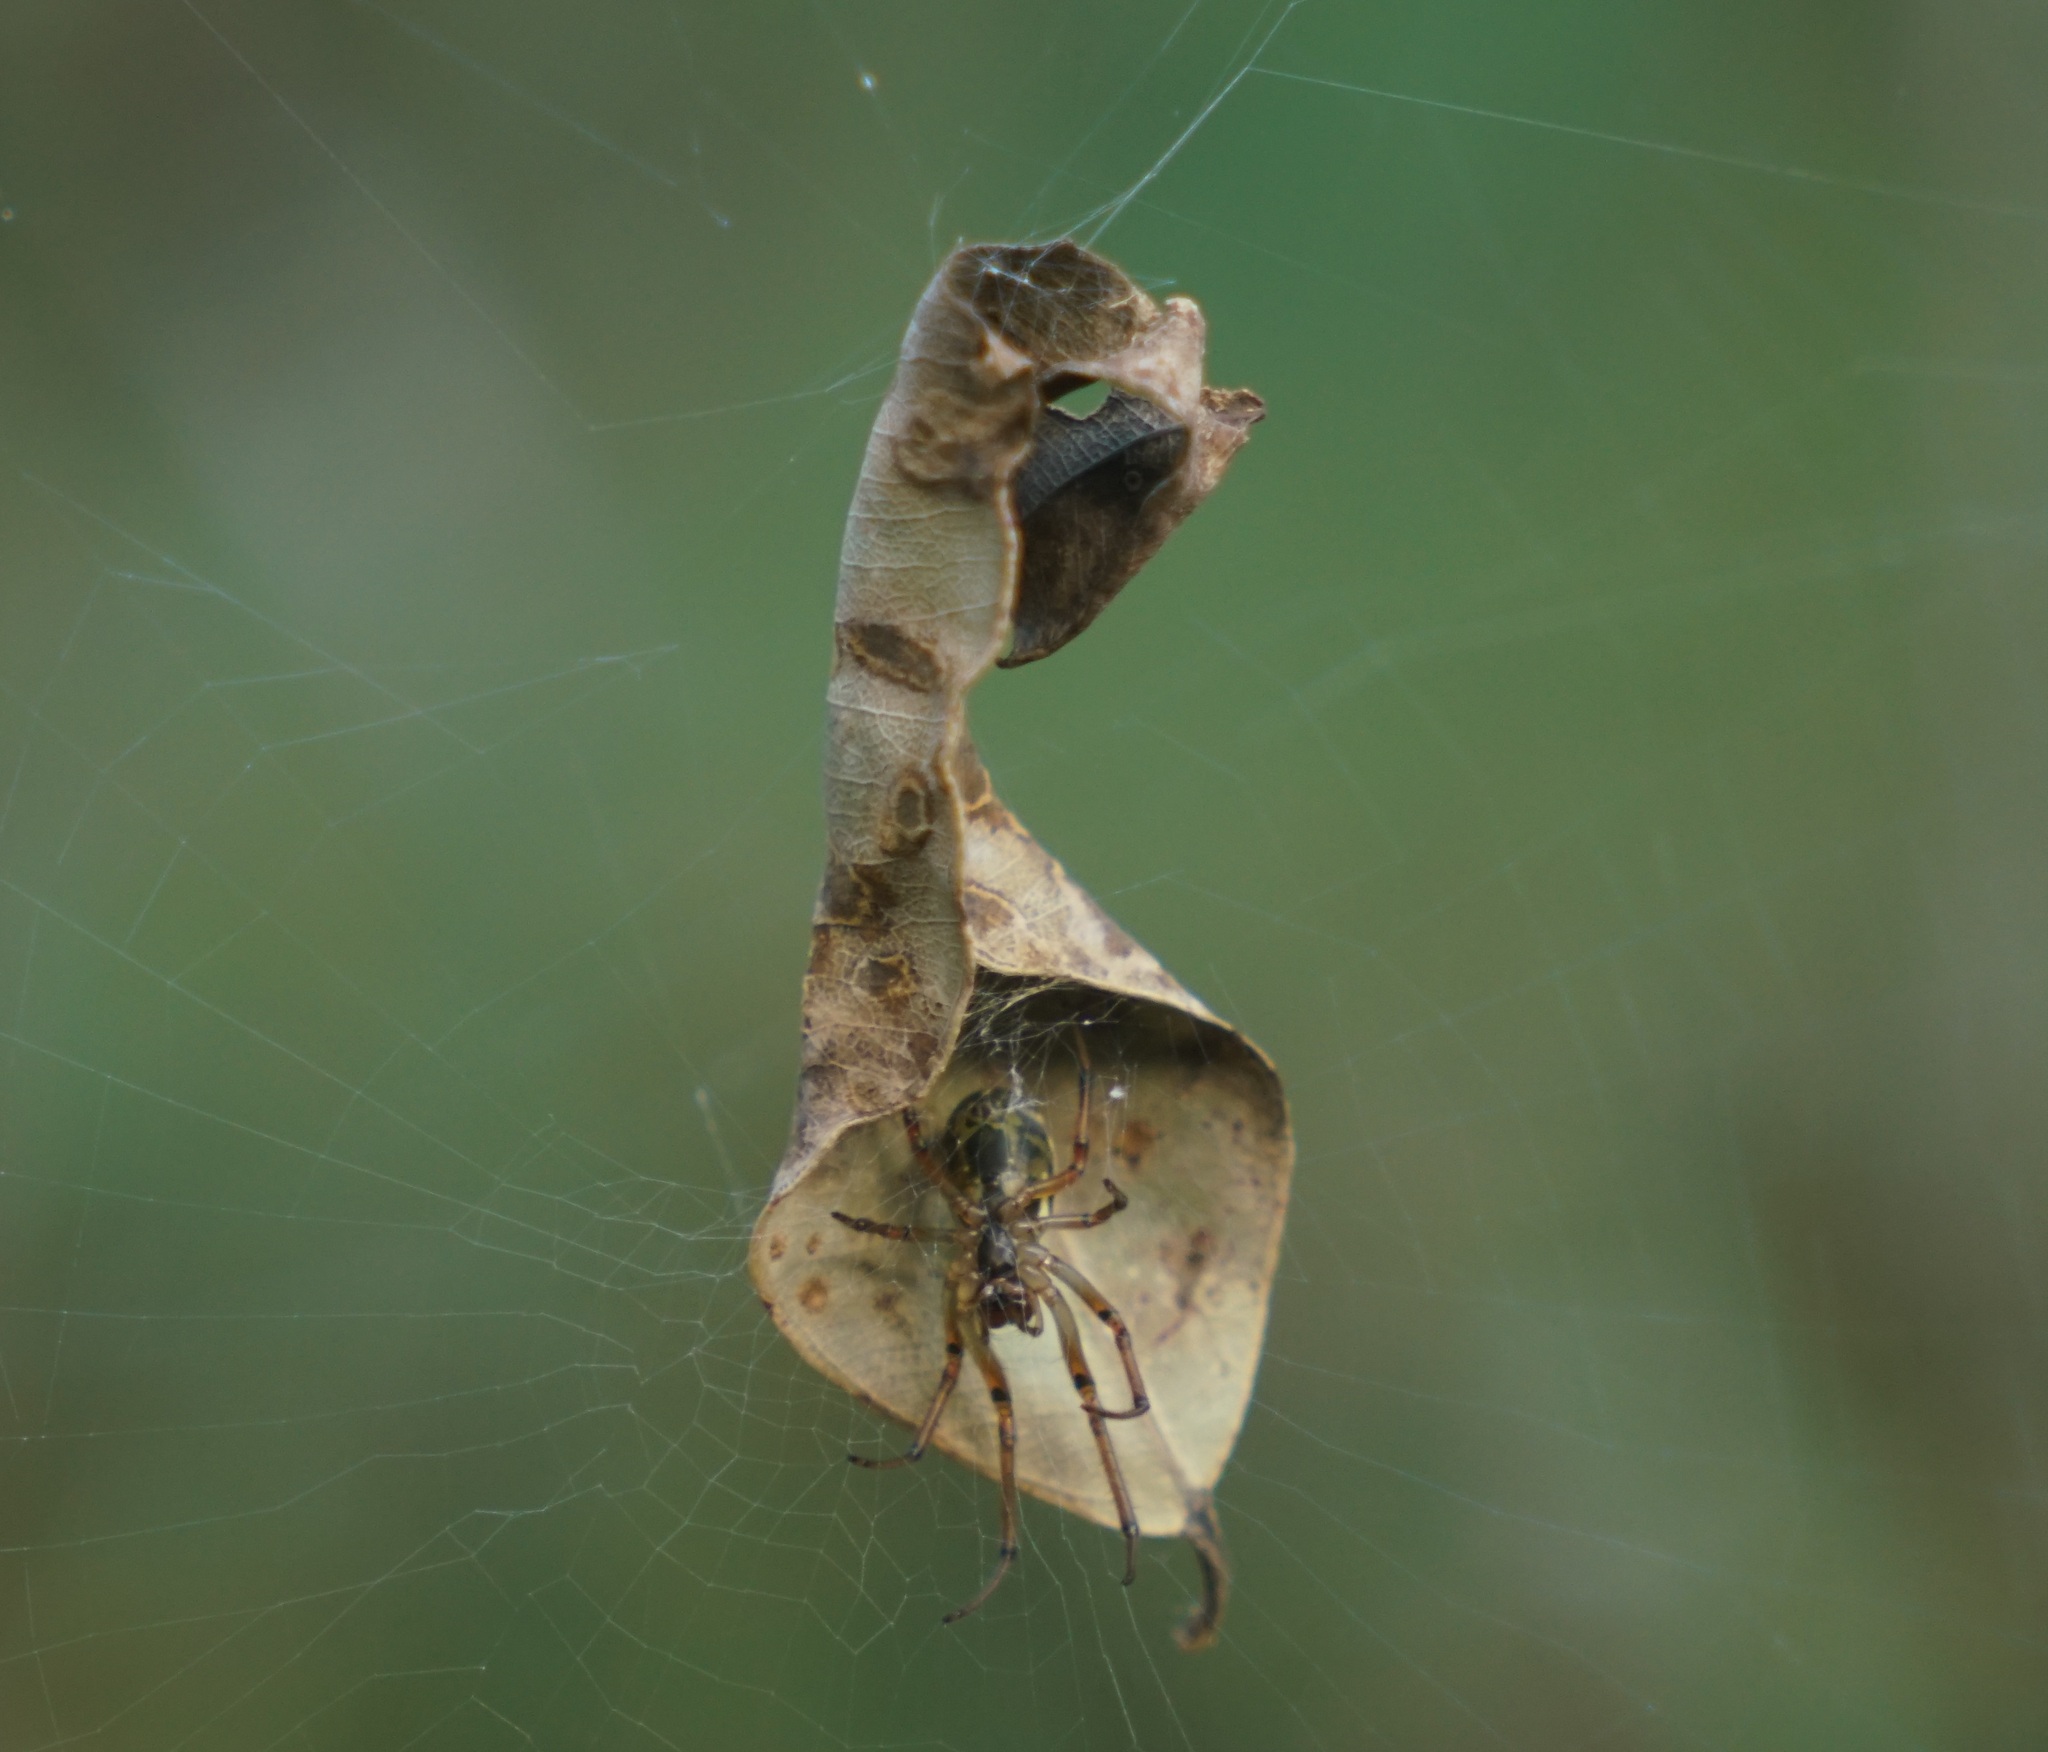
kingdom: Animalia
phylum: Arthropoda
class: Arachnida
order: Araneae
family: Araneidae
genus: Phonognatha
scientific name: Phonognatha graeffei
